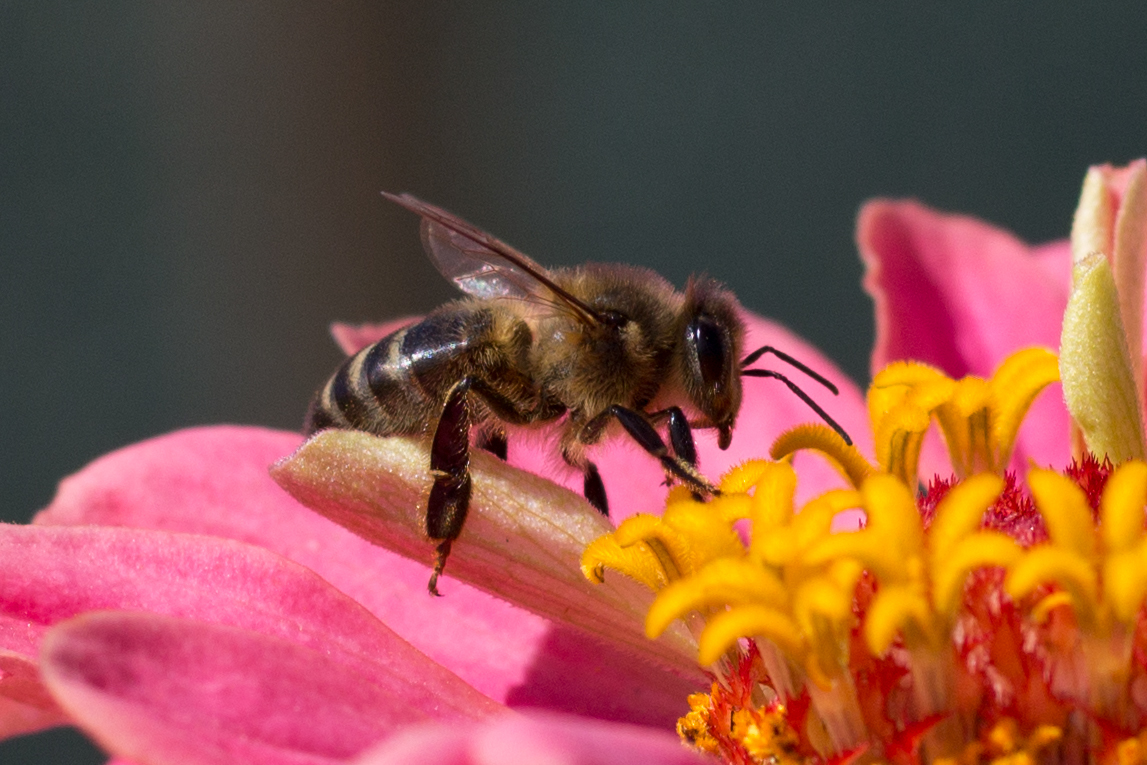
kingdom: Animalia
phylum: Arthropoda
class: Insecta
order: Hymenoptera
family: Apidae
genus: Apis
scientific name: Apis mellifera
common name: Honey bee
